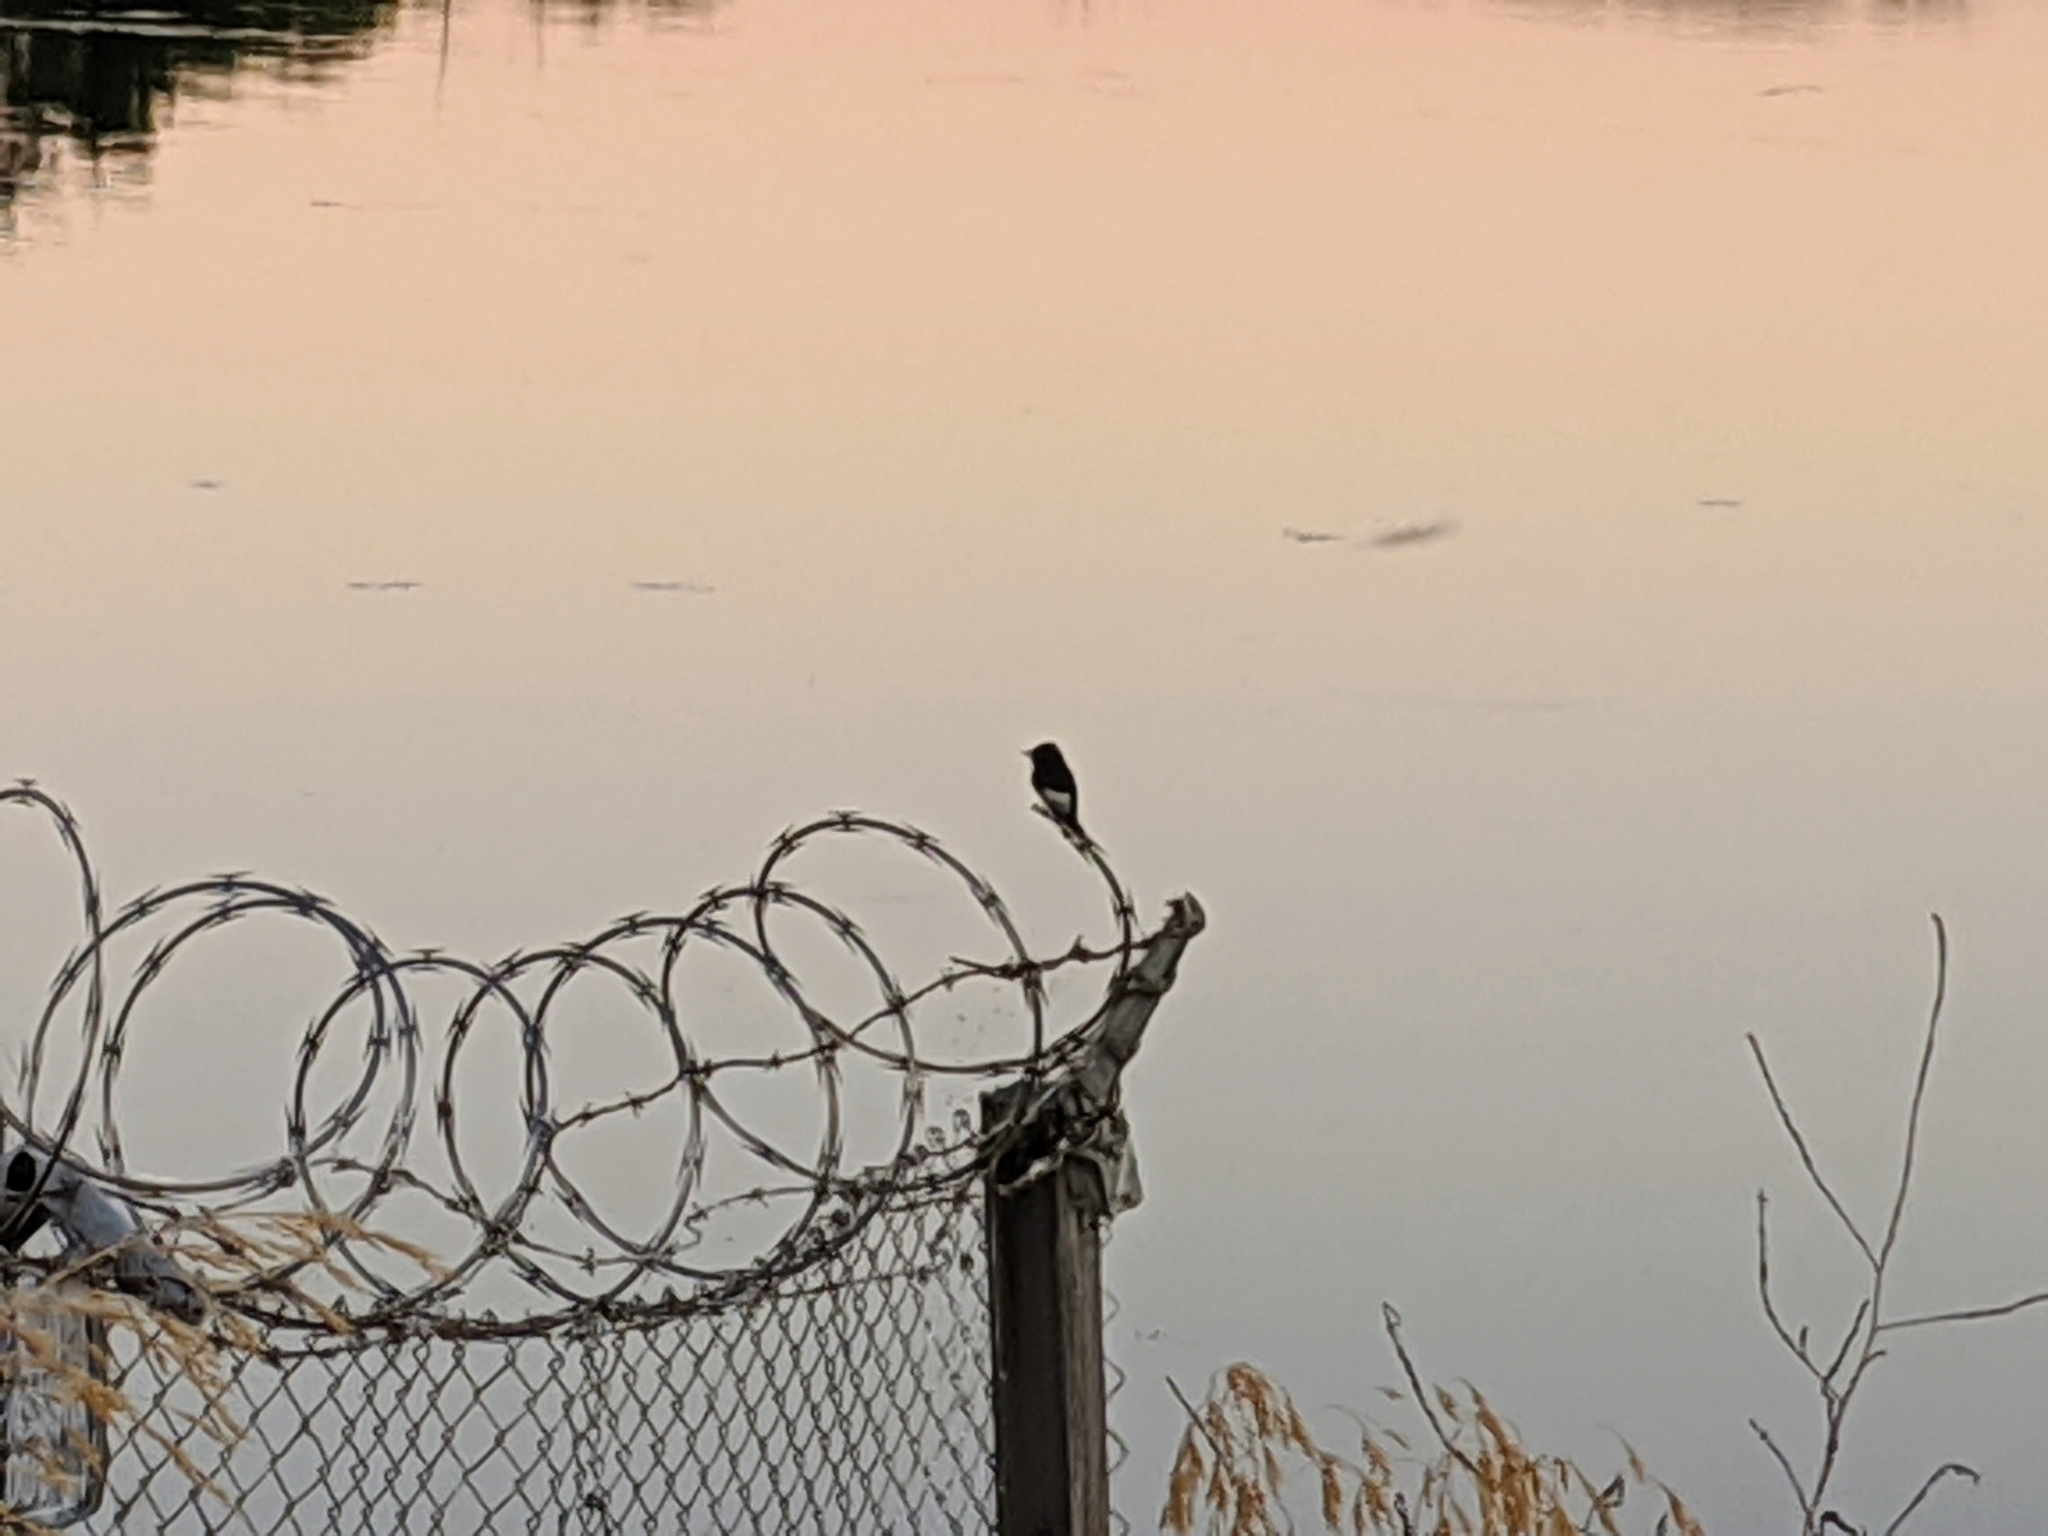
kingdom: Animalia
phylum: Chordata
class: Aves
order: Passeriformes
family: Tyrannidae
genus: Sayornis
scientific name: Sayornis nigricans
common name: Black phoebe
